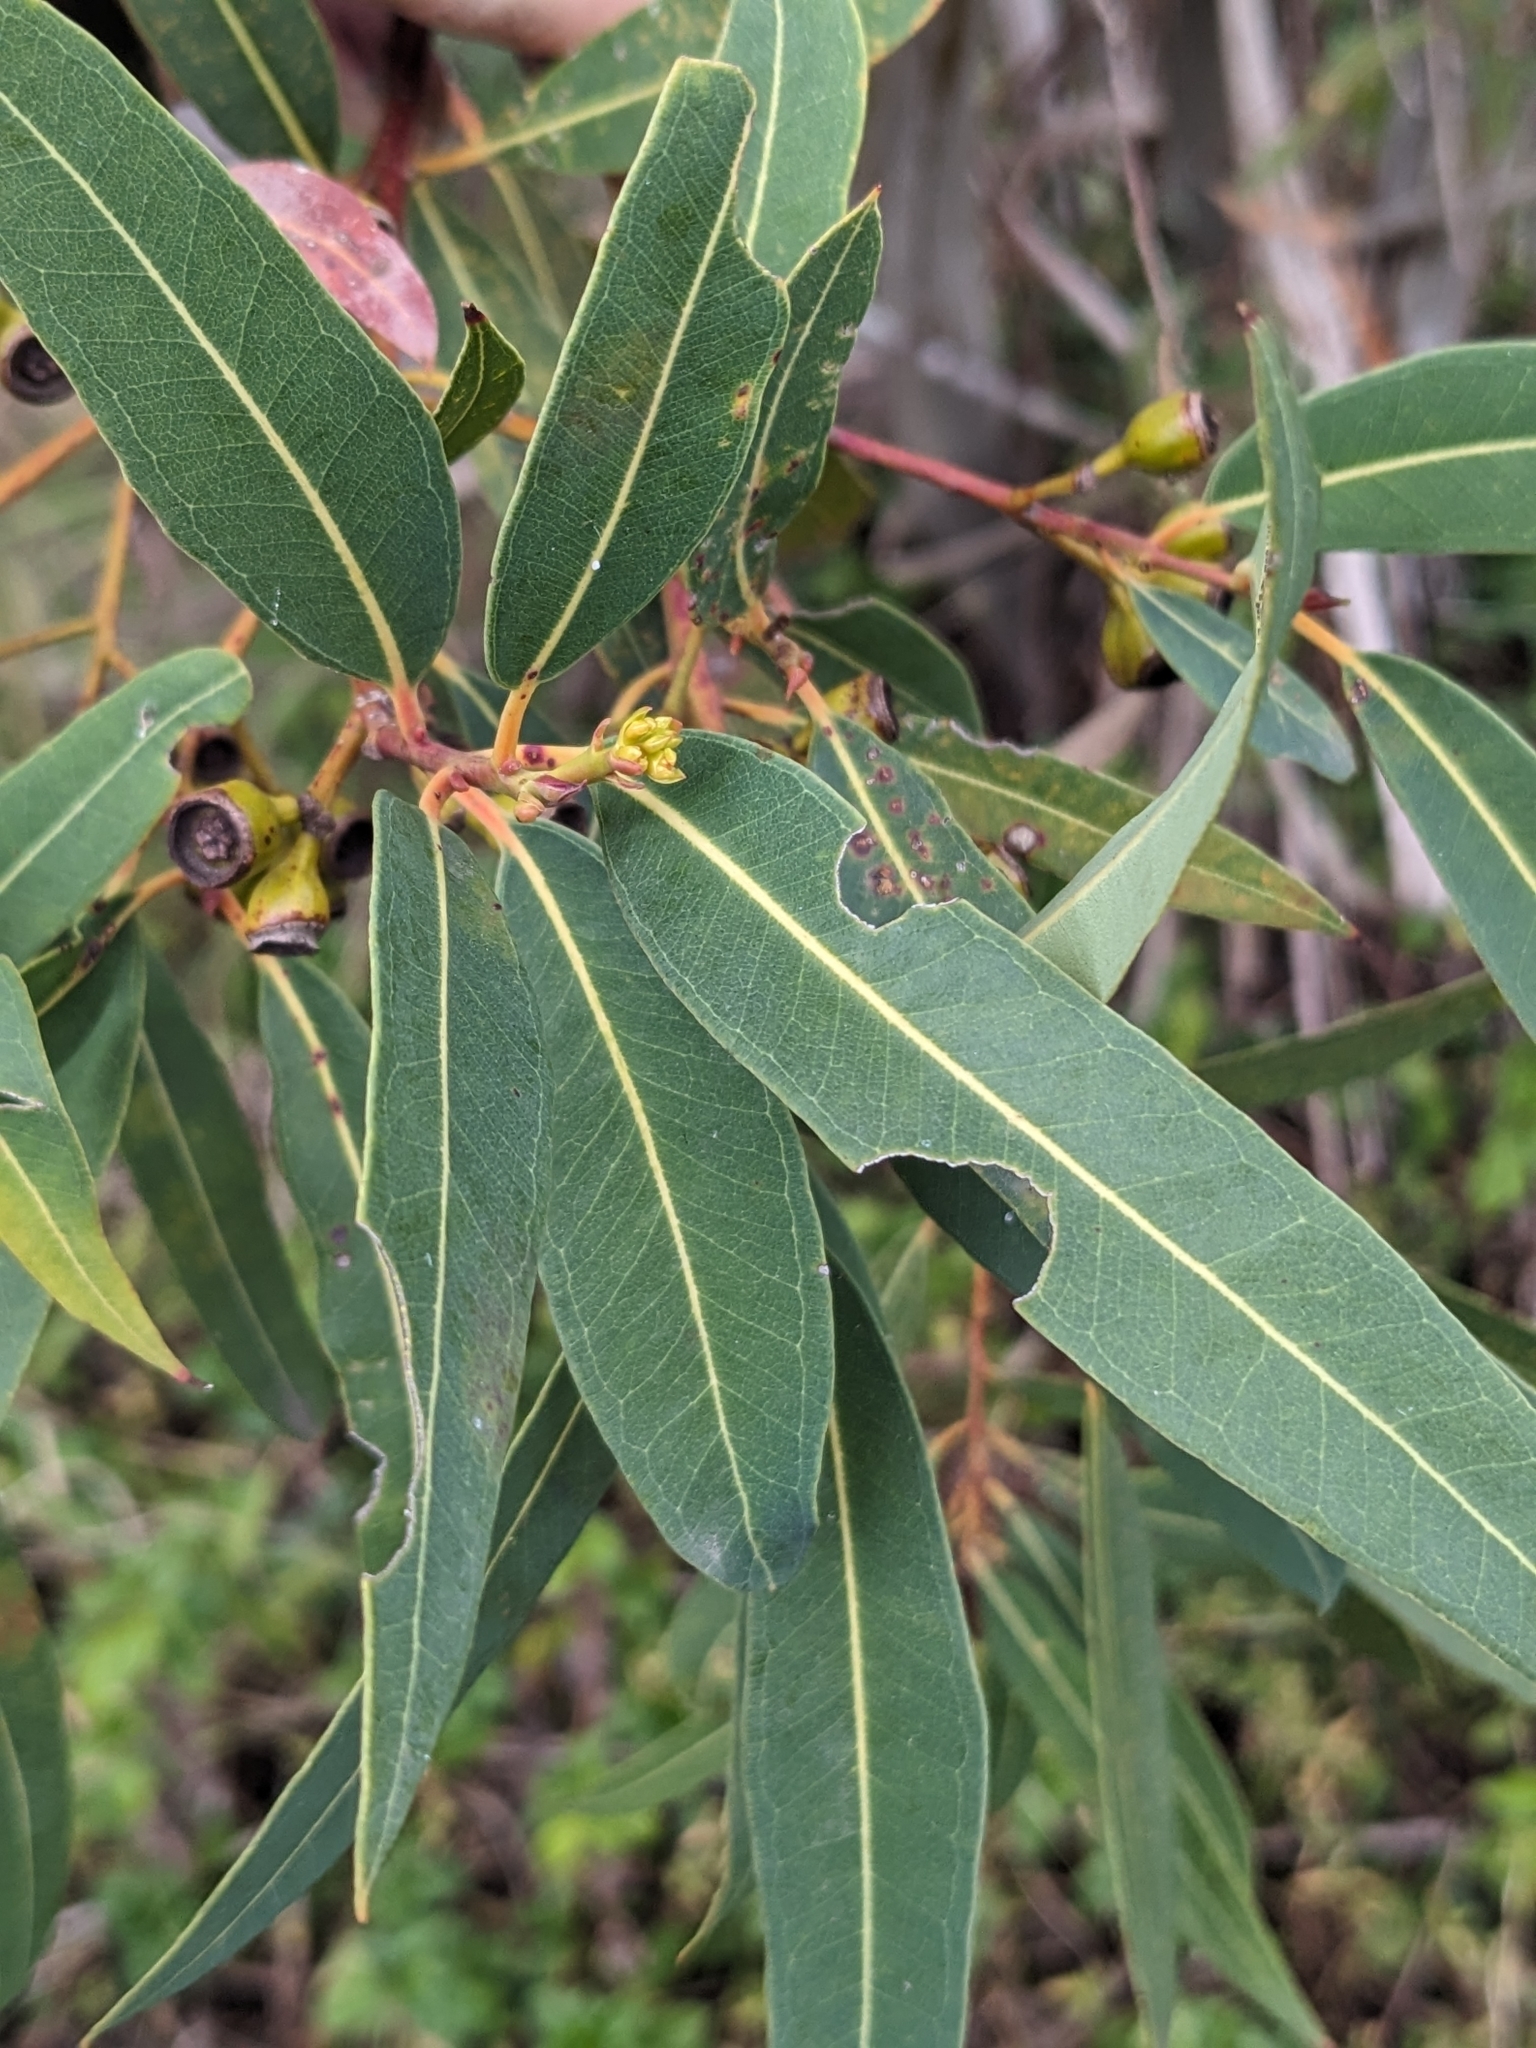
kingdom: Plantae
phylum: Tracheophyta
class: Magnoliopsida
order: Myrtales
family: Myrtaceae
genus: Eucalyptus
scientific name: Eucalyptus curtisii
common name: Plunkett mallee
